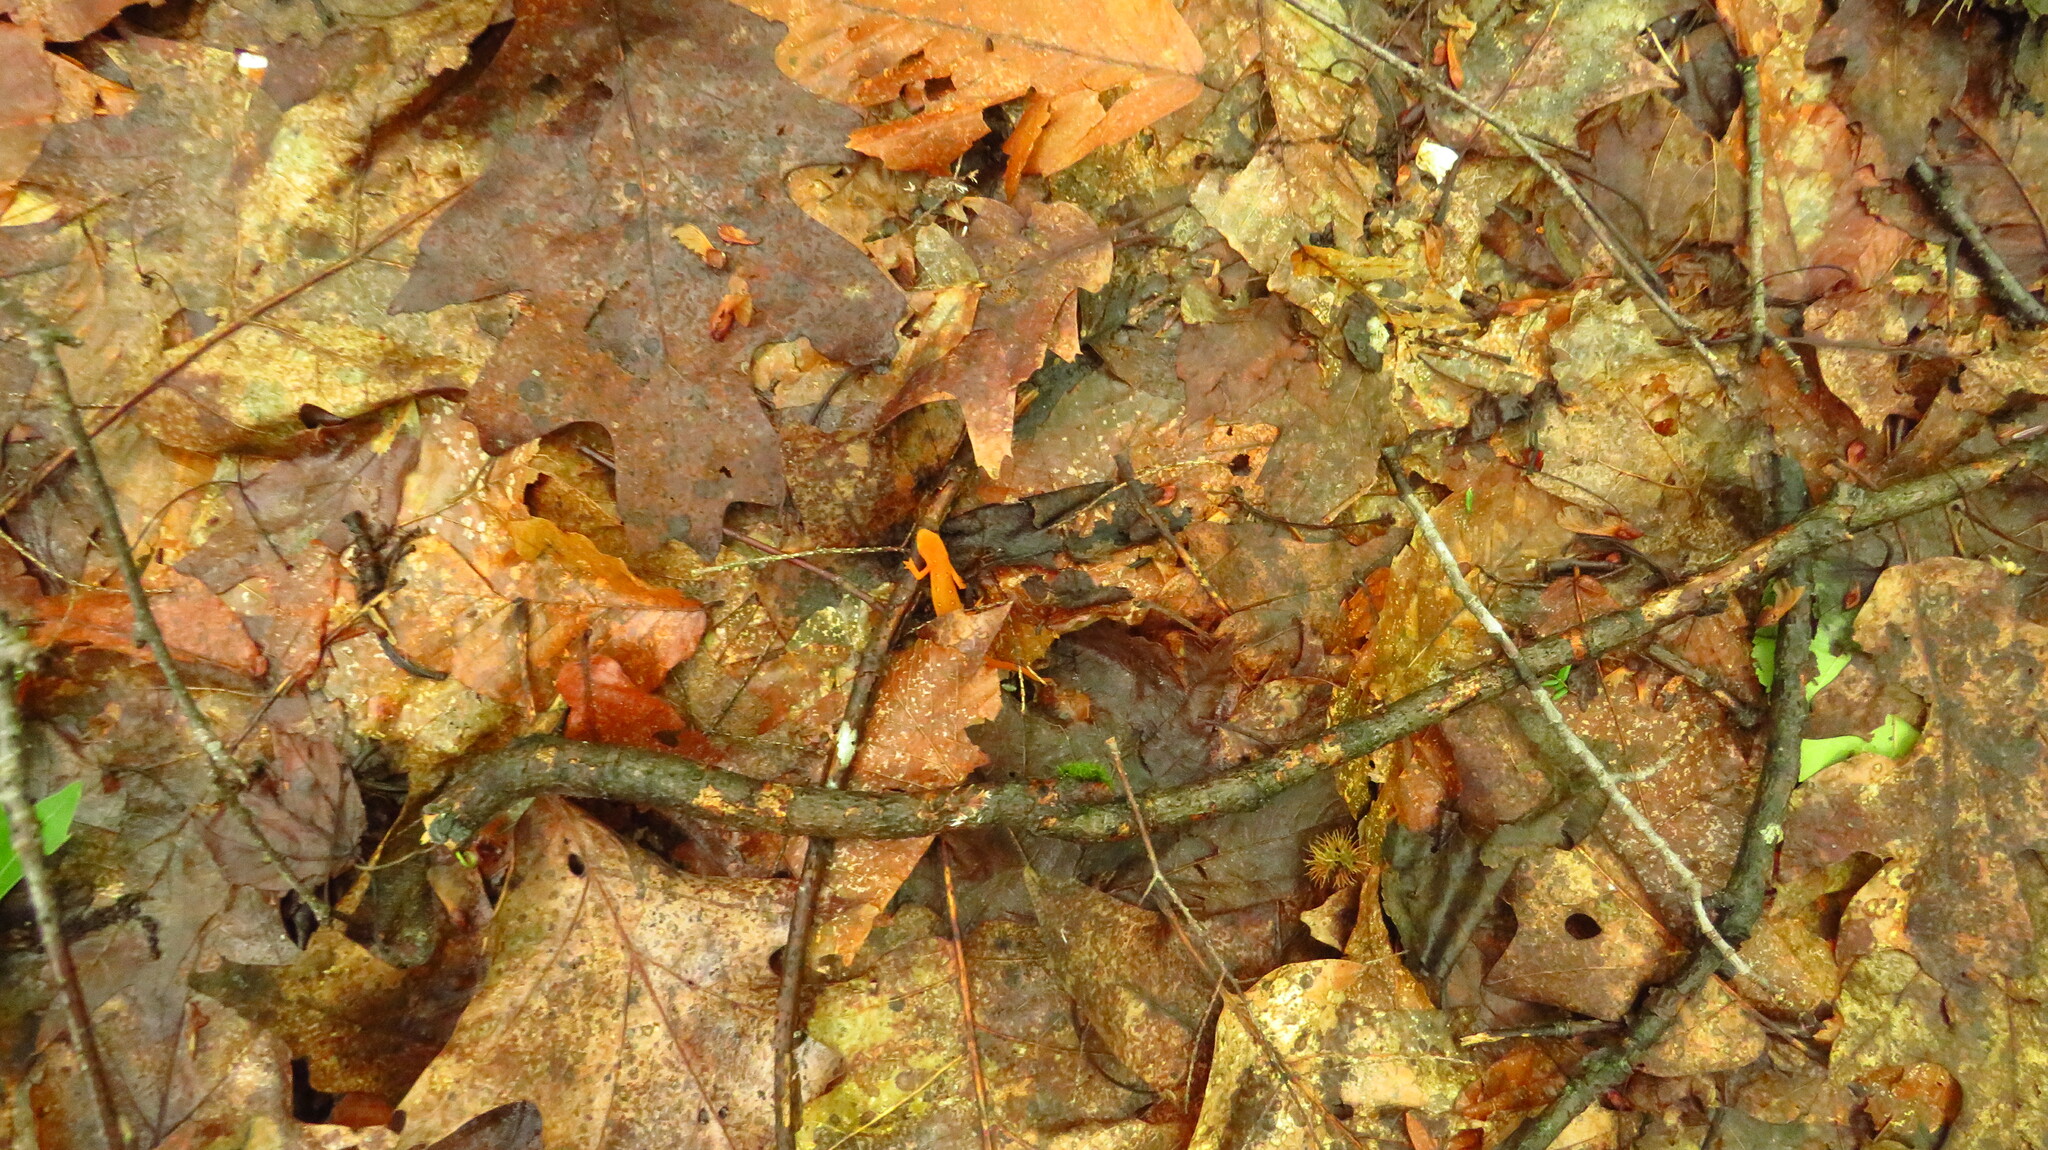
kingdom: Animalia
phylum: Chordata
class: Amphibia
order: Caudata
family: Salamandridae
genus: Notophthalmus
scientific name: Notophthalmus viridescens
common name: Eastern newt
